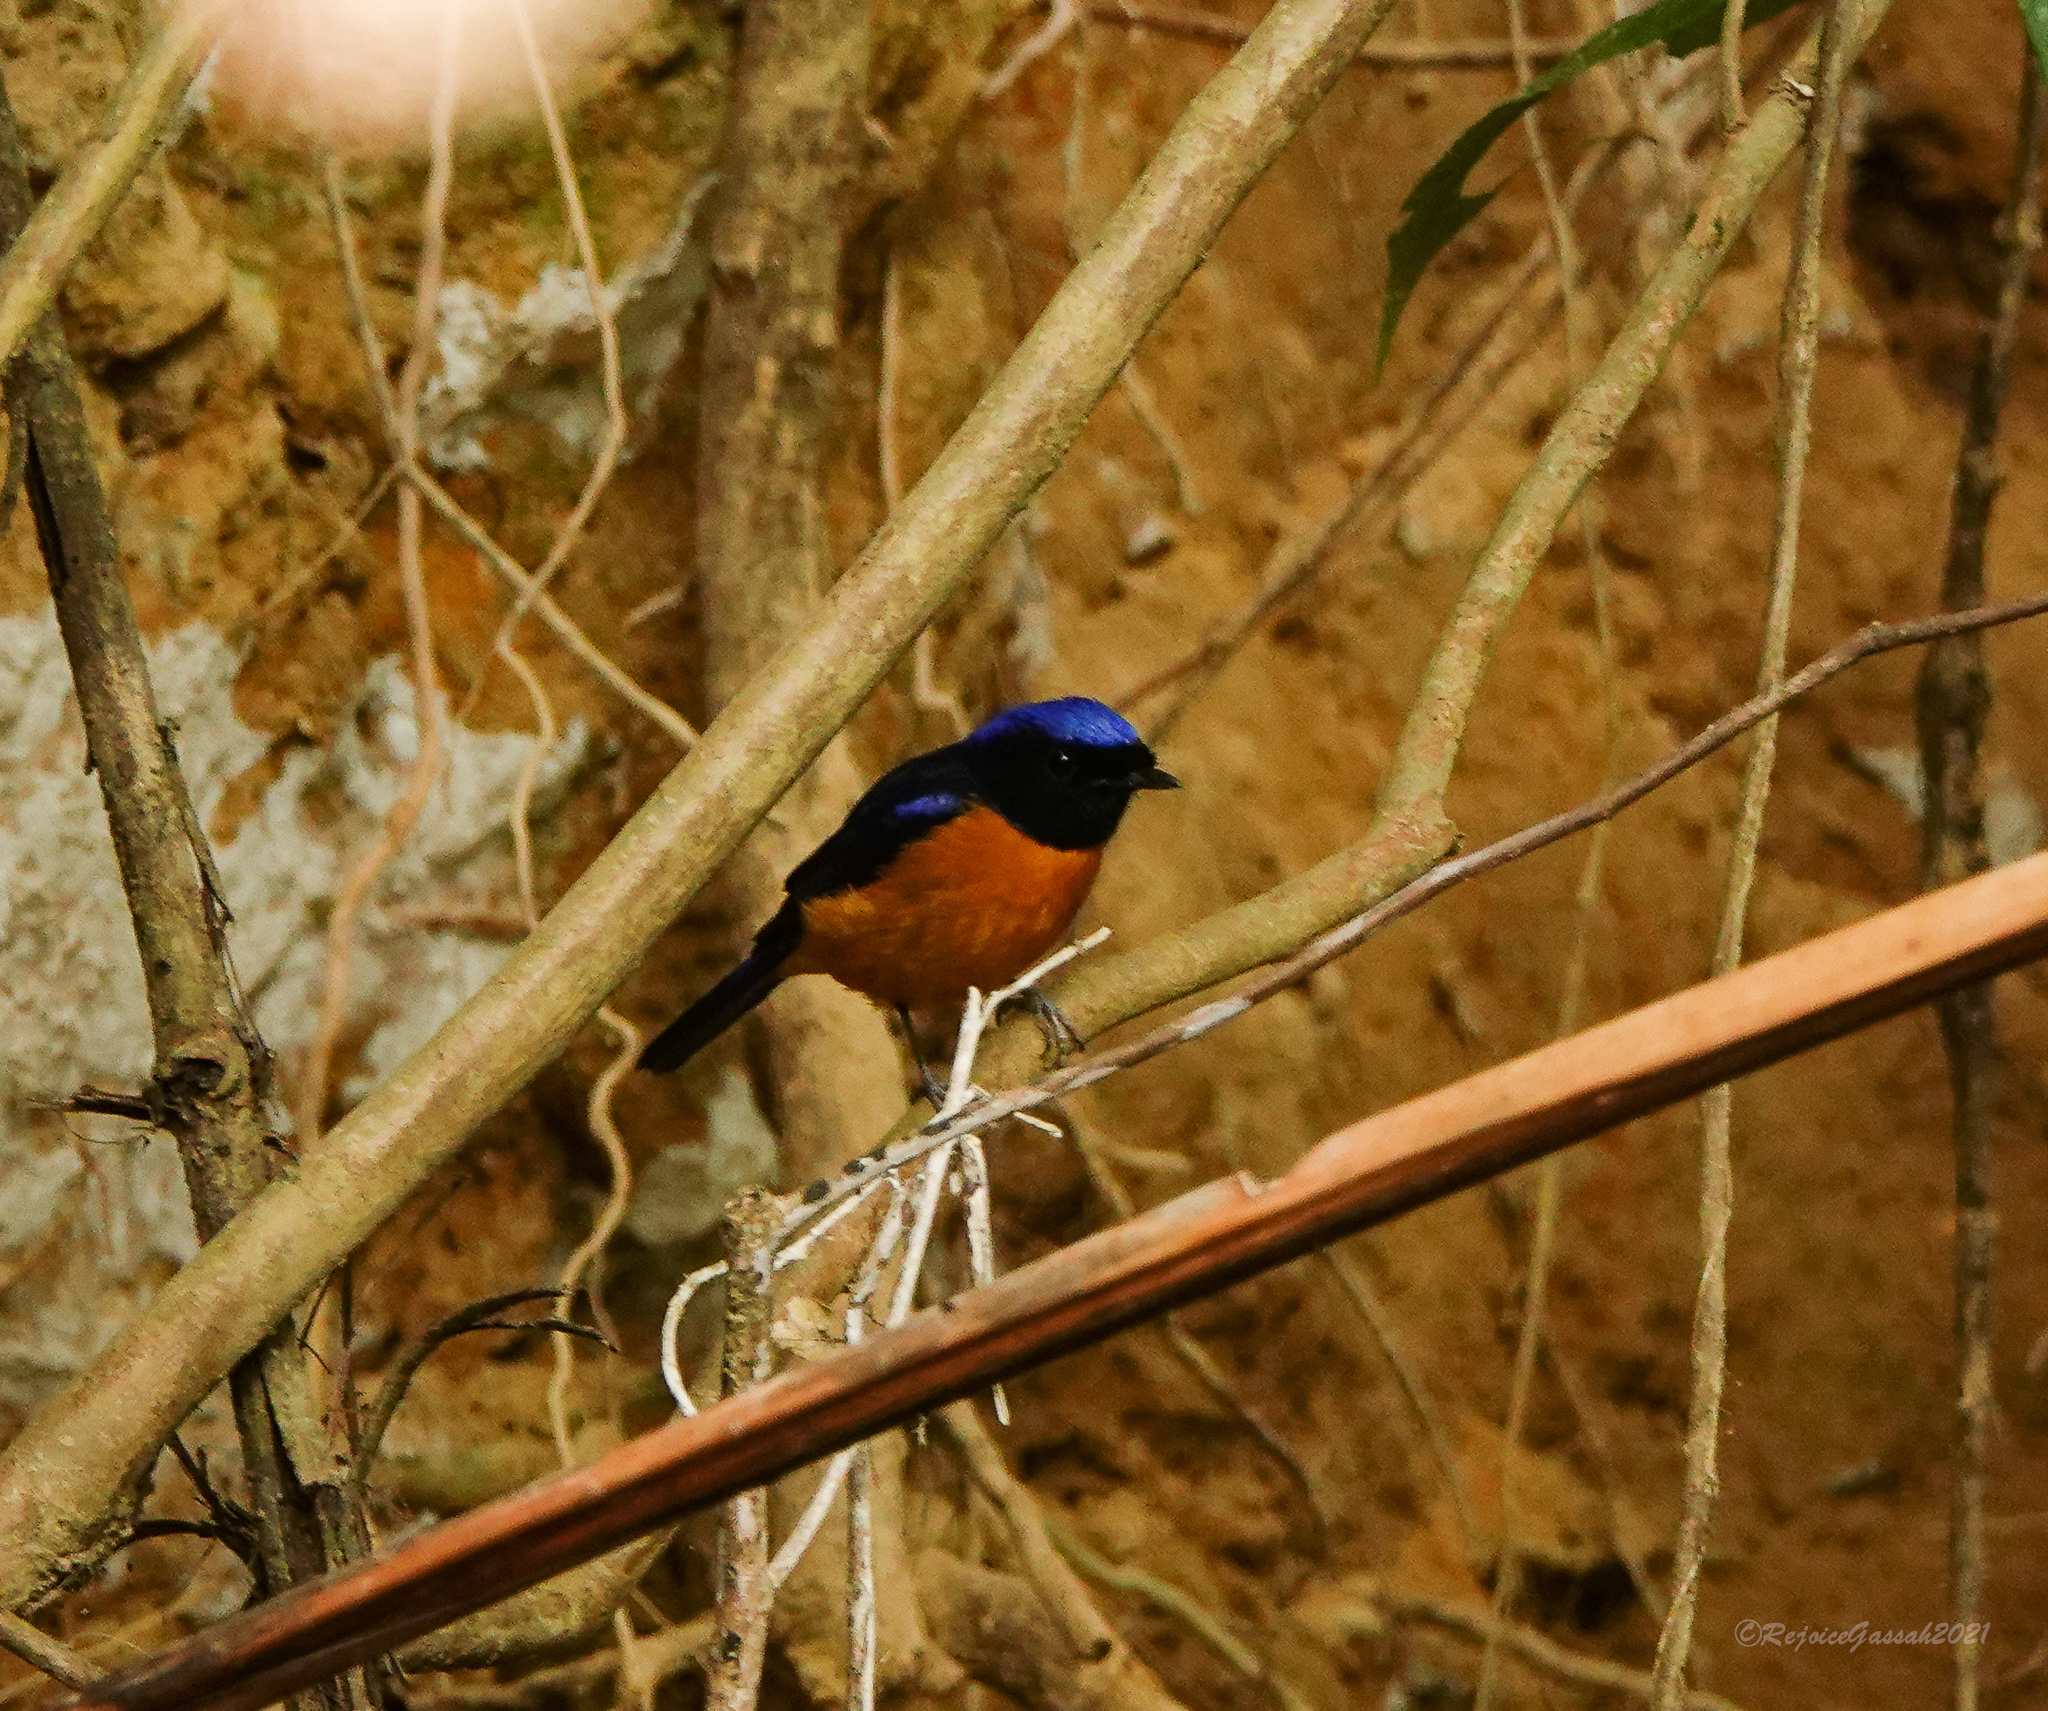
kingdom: Animalia
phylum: Chordata
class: Aves
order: Passeriformes
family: Muscicapidae
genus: Niltava
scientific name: Niltava sundara
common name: Rufous-bellied niltava
